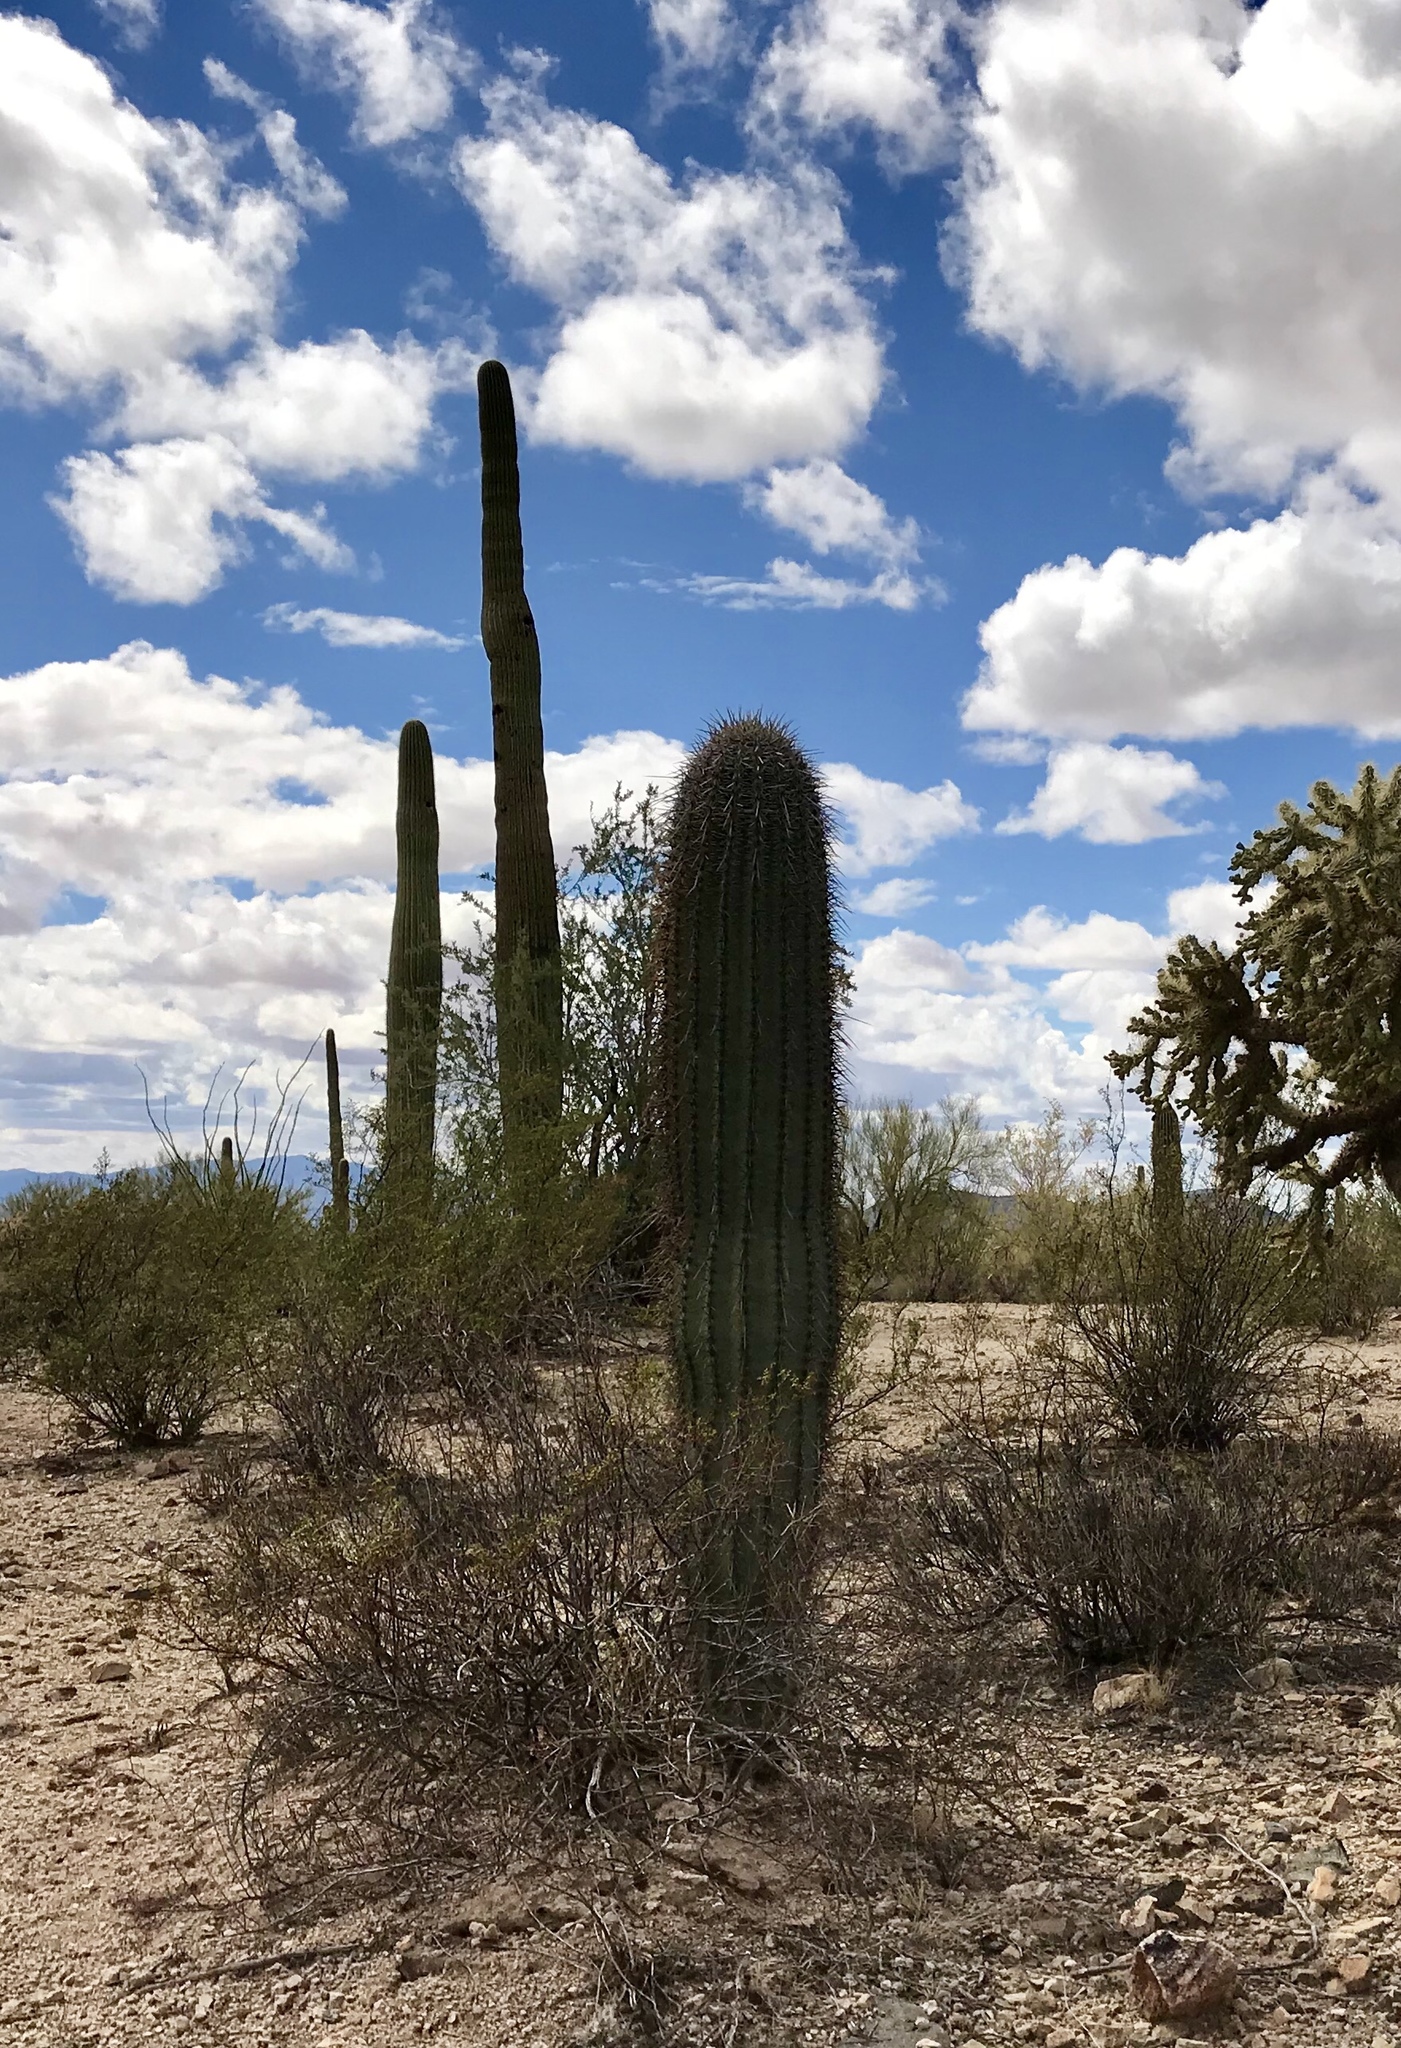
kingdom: Plantae
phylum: Tracheophyta
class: Magnoliopsida
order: Caryophyllales
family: Cactaceae
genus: Carnegiea
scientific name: Carnegiea gigantea
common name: Saguaro
